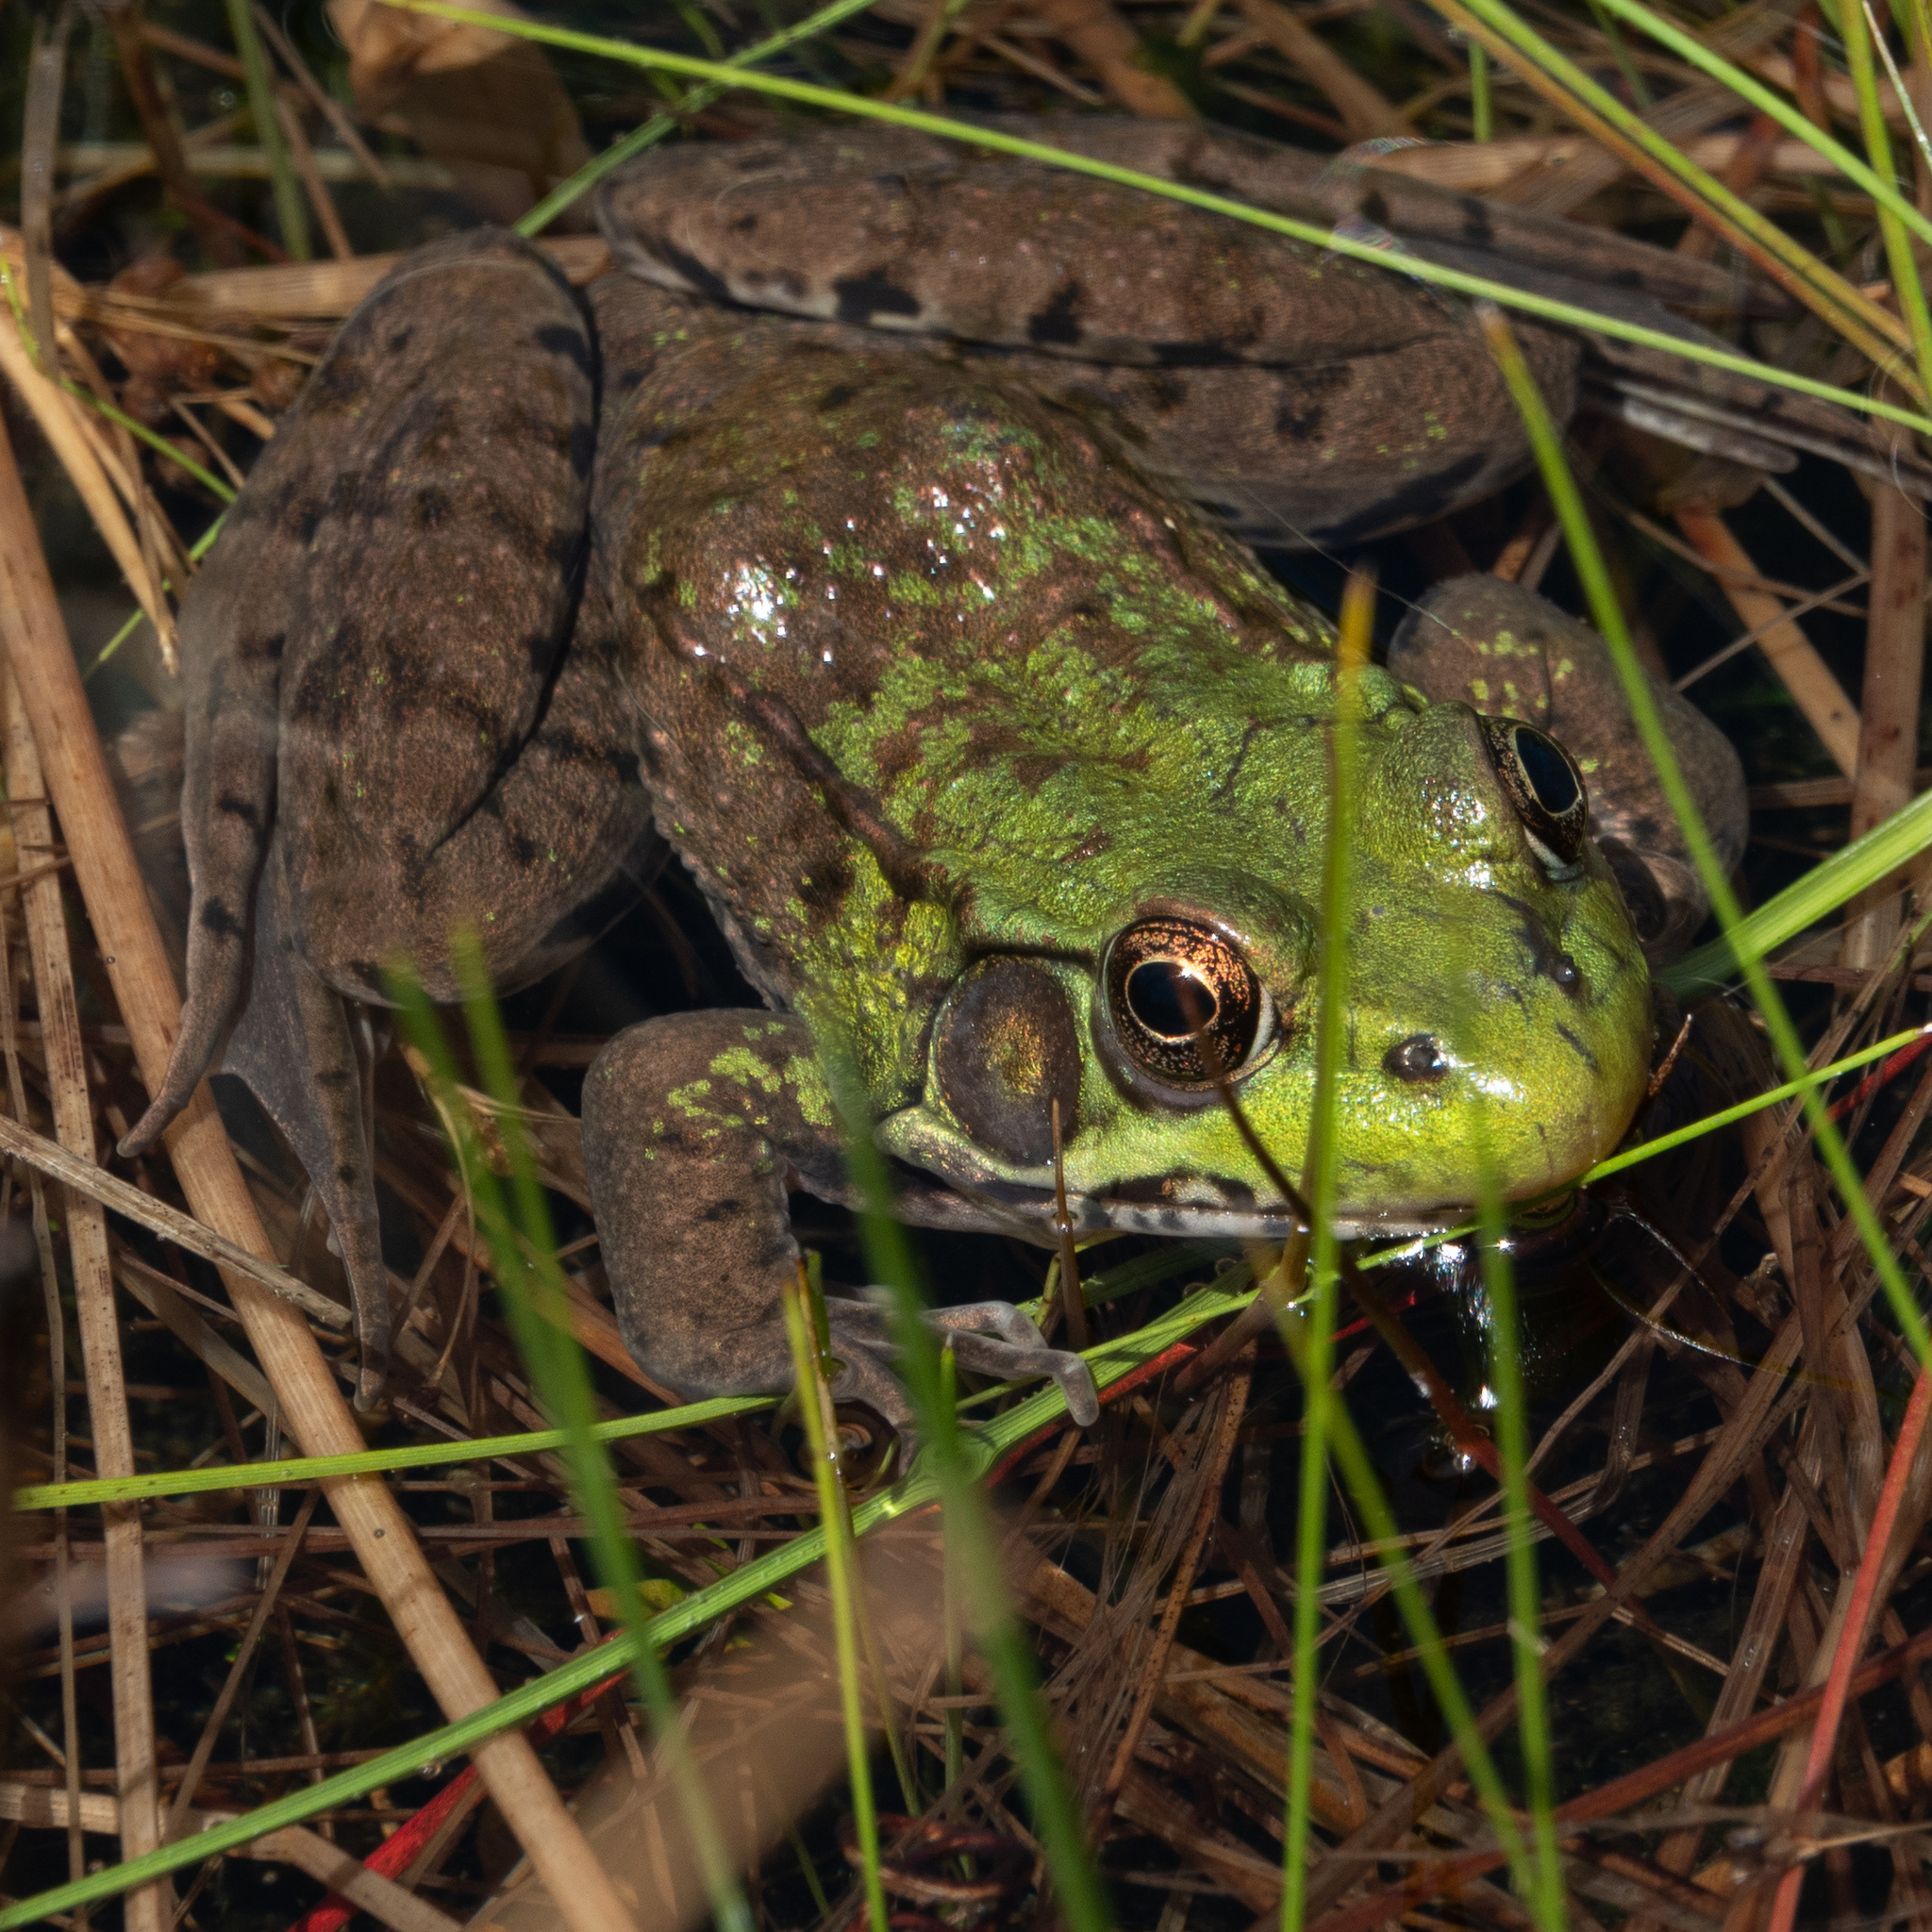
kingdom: Animalia
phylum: Chordata
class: Amphibia
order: Anura
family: Ranidae
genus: Lithobates
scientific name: Lithobates clamitans
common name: Green frog
